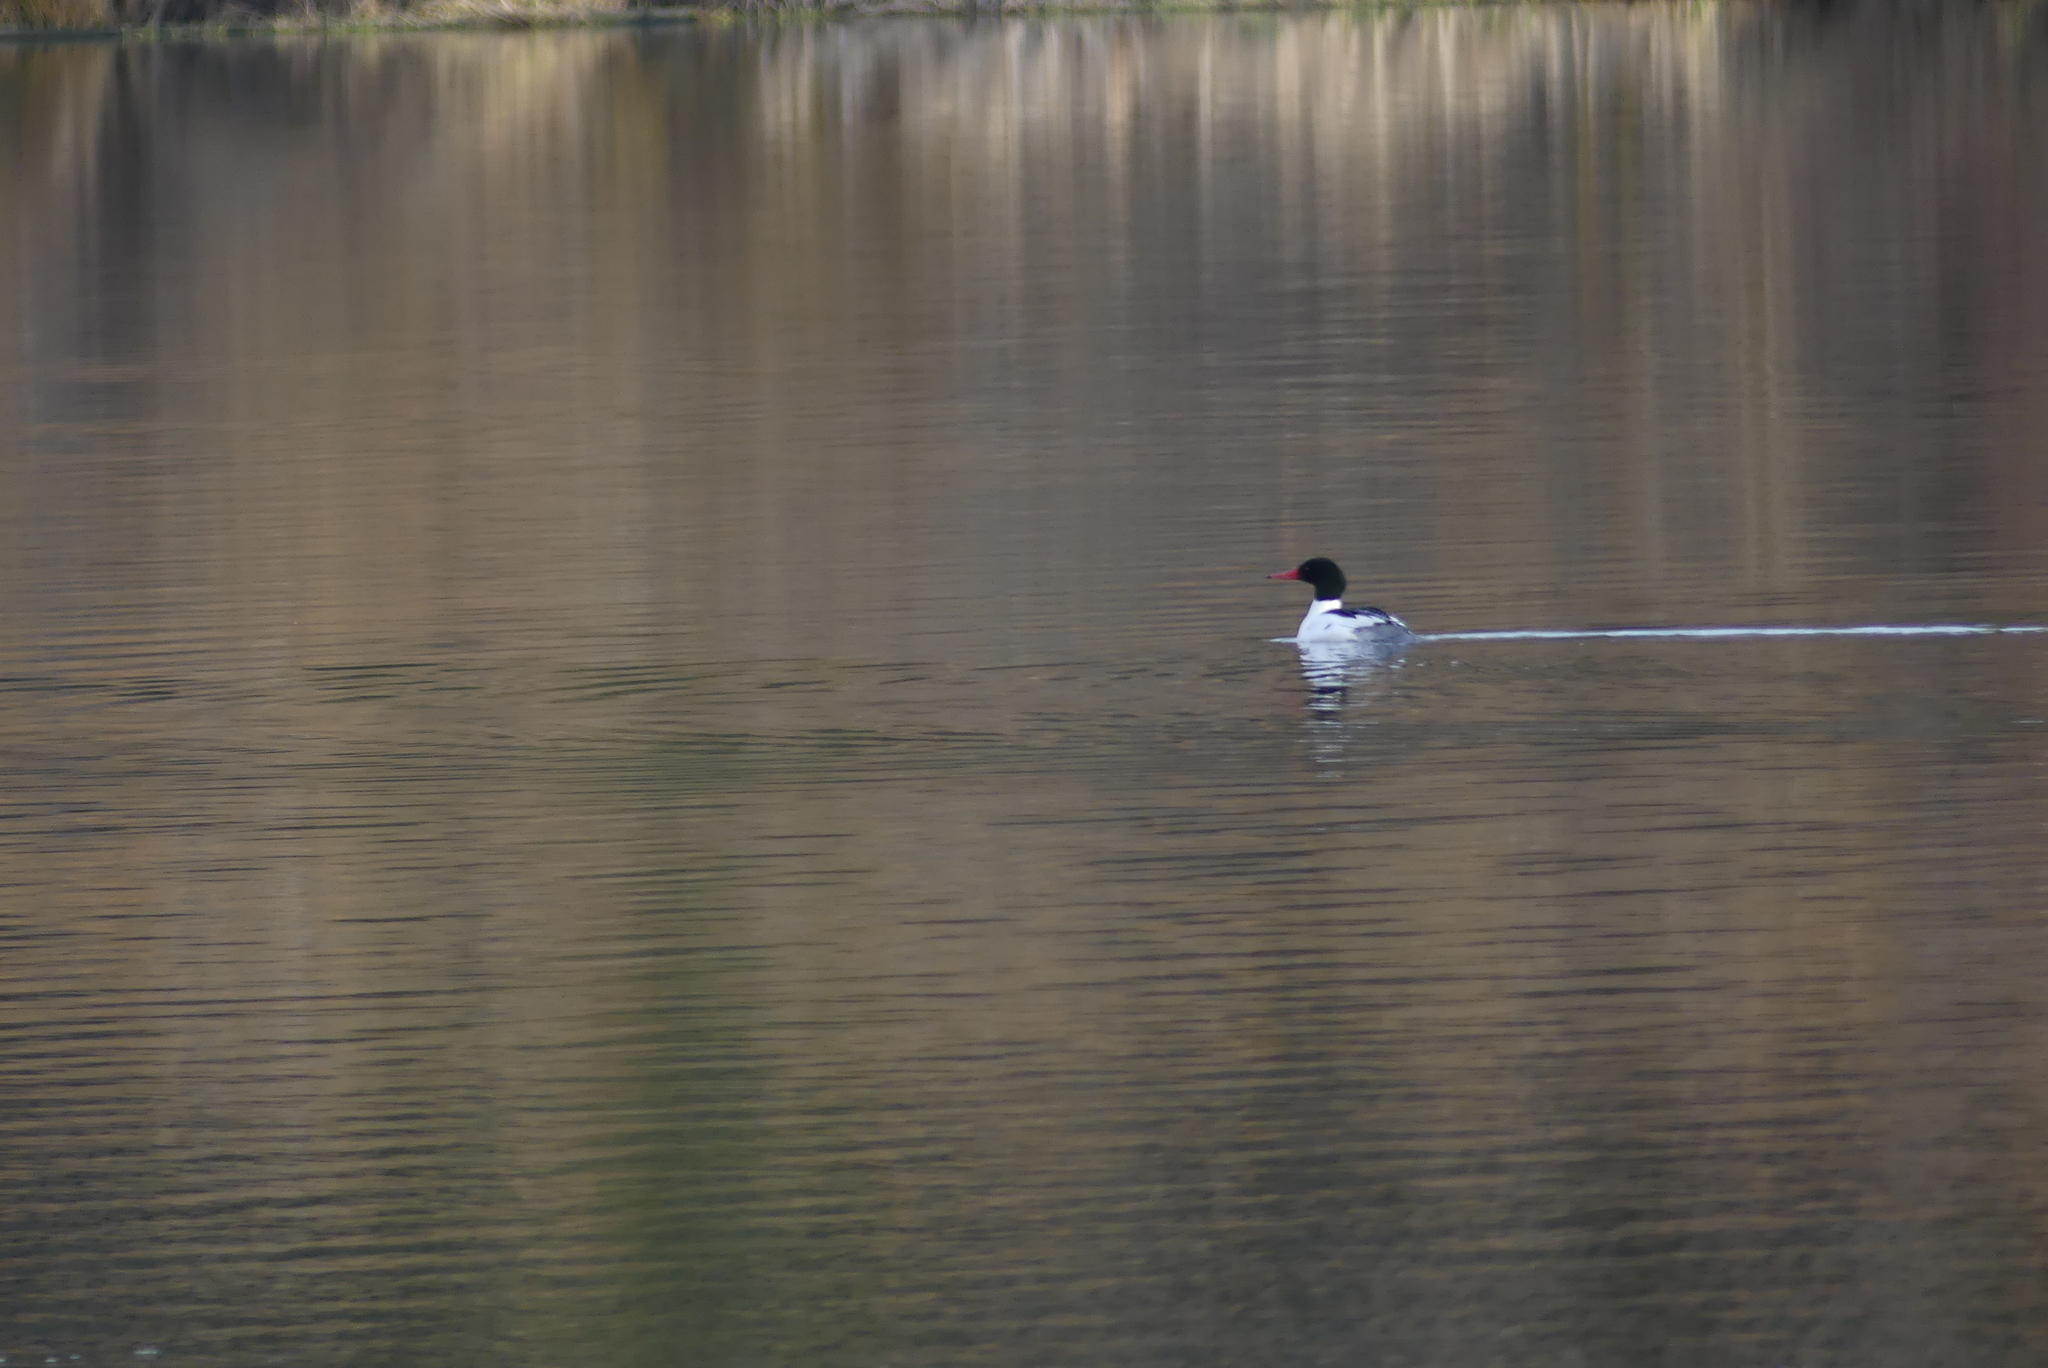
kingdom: Animalia
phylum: Chordata
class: Aves
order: Anseriformes
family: Anatidae
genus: Mergus
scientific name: Mergus merganser
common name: Common merganser
